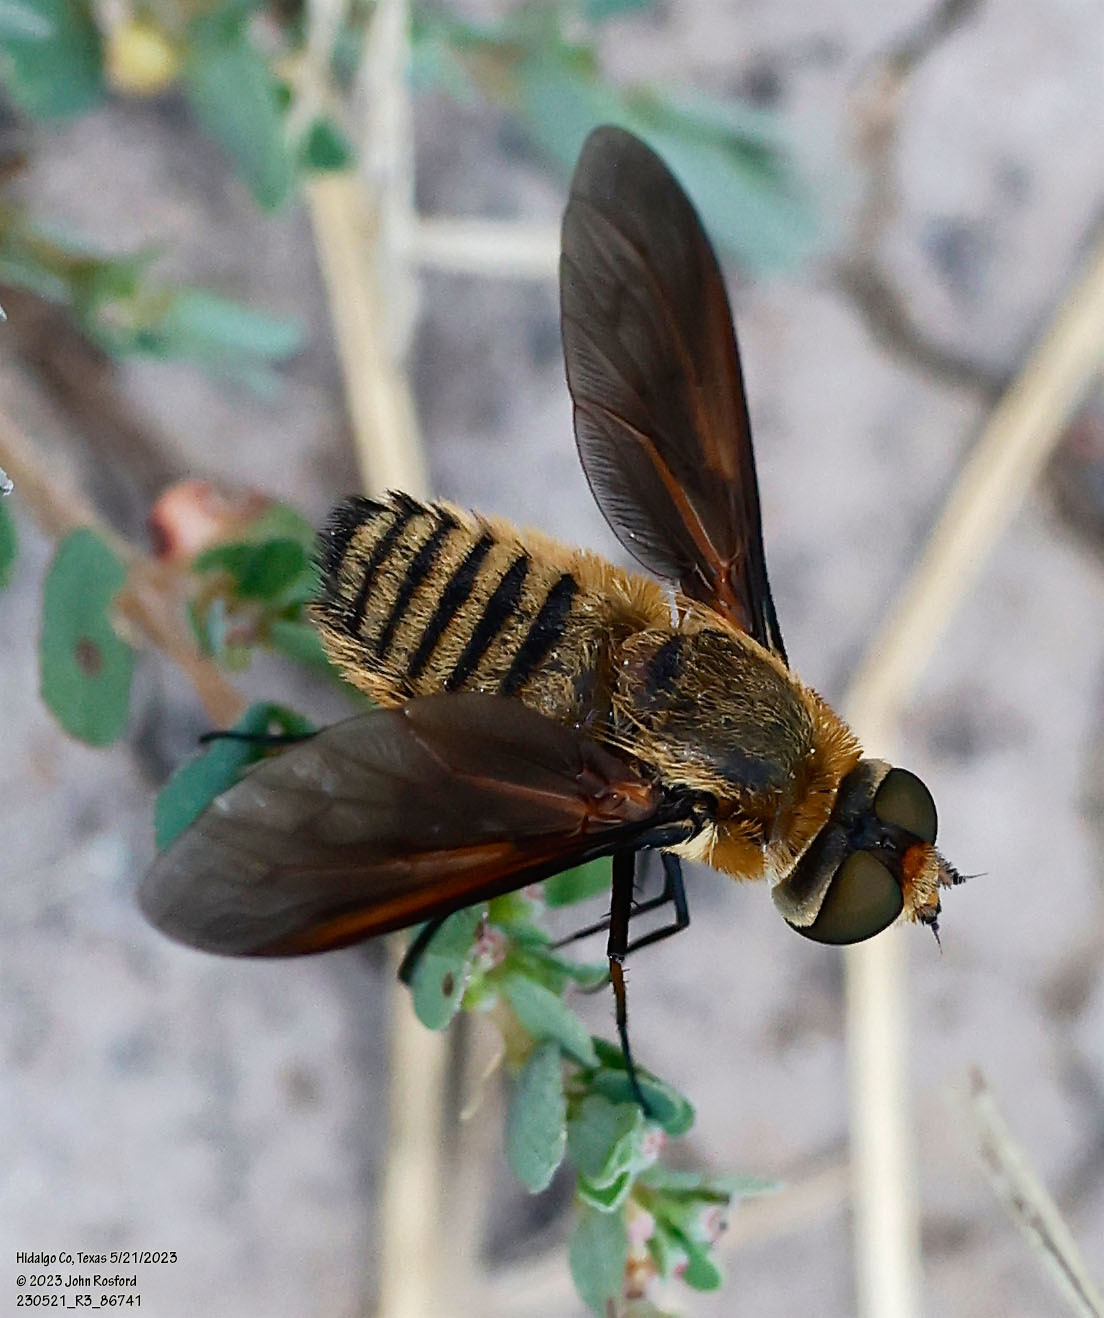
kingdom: Animalia
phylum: Arthropoda
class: Insecta
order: Diptera
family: Bombyliidae
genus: Poecilanthrax
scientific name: Poecilanthrax lucifer
